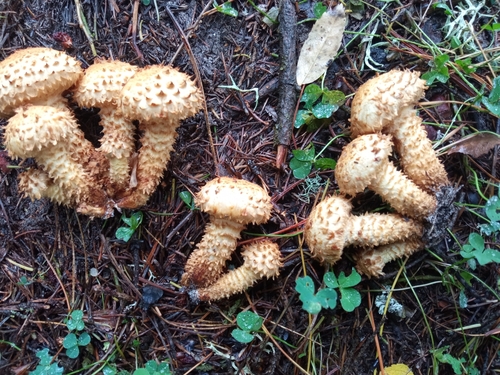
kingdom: Fungi
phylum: Basidiomycota
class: Agaricomycetes
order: Agaricales
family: Strophariaceae
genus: Pholiota
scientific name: Pholiota squarrosa
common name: Shaggy pholiota
